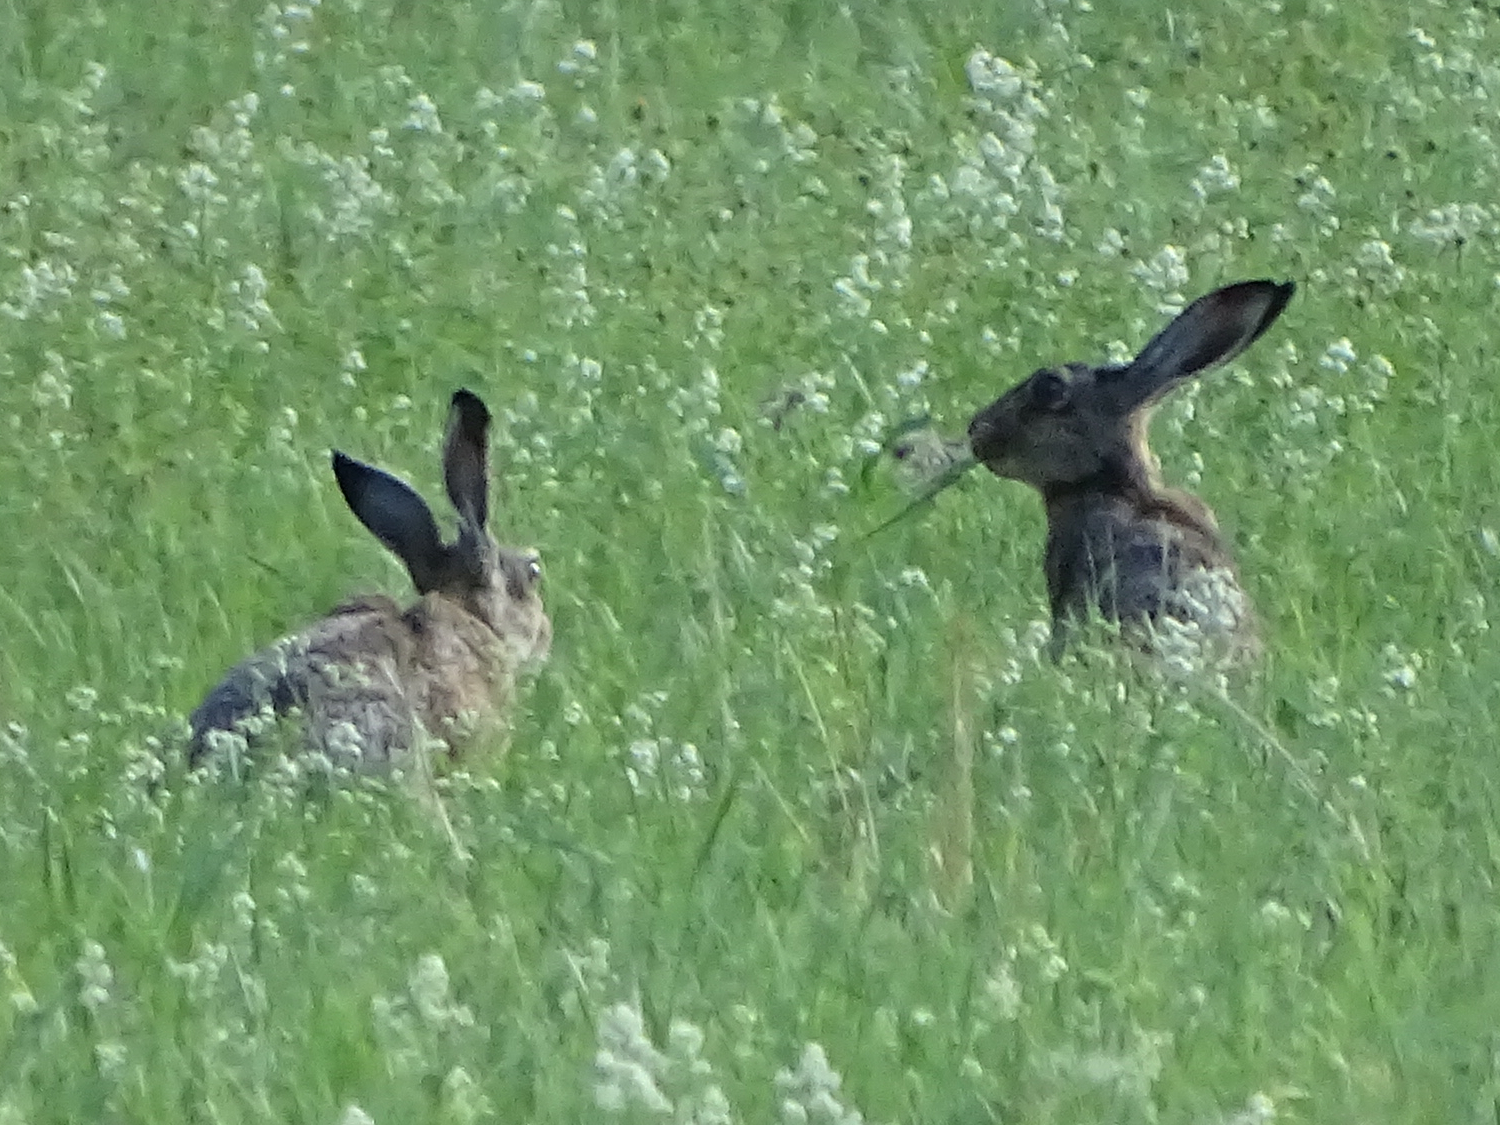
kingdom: Animalia
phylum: Chordata
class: Mammalia
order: Lagomorpha
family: Leporidae
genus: Lepus
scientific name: Lepus europaeus
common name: European hare
